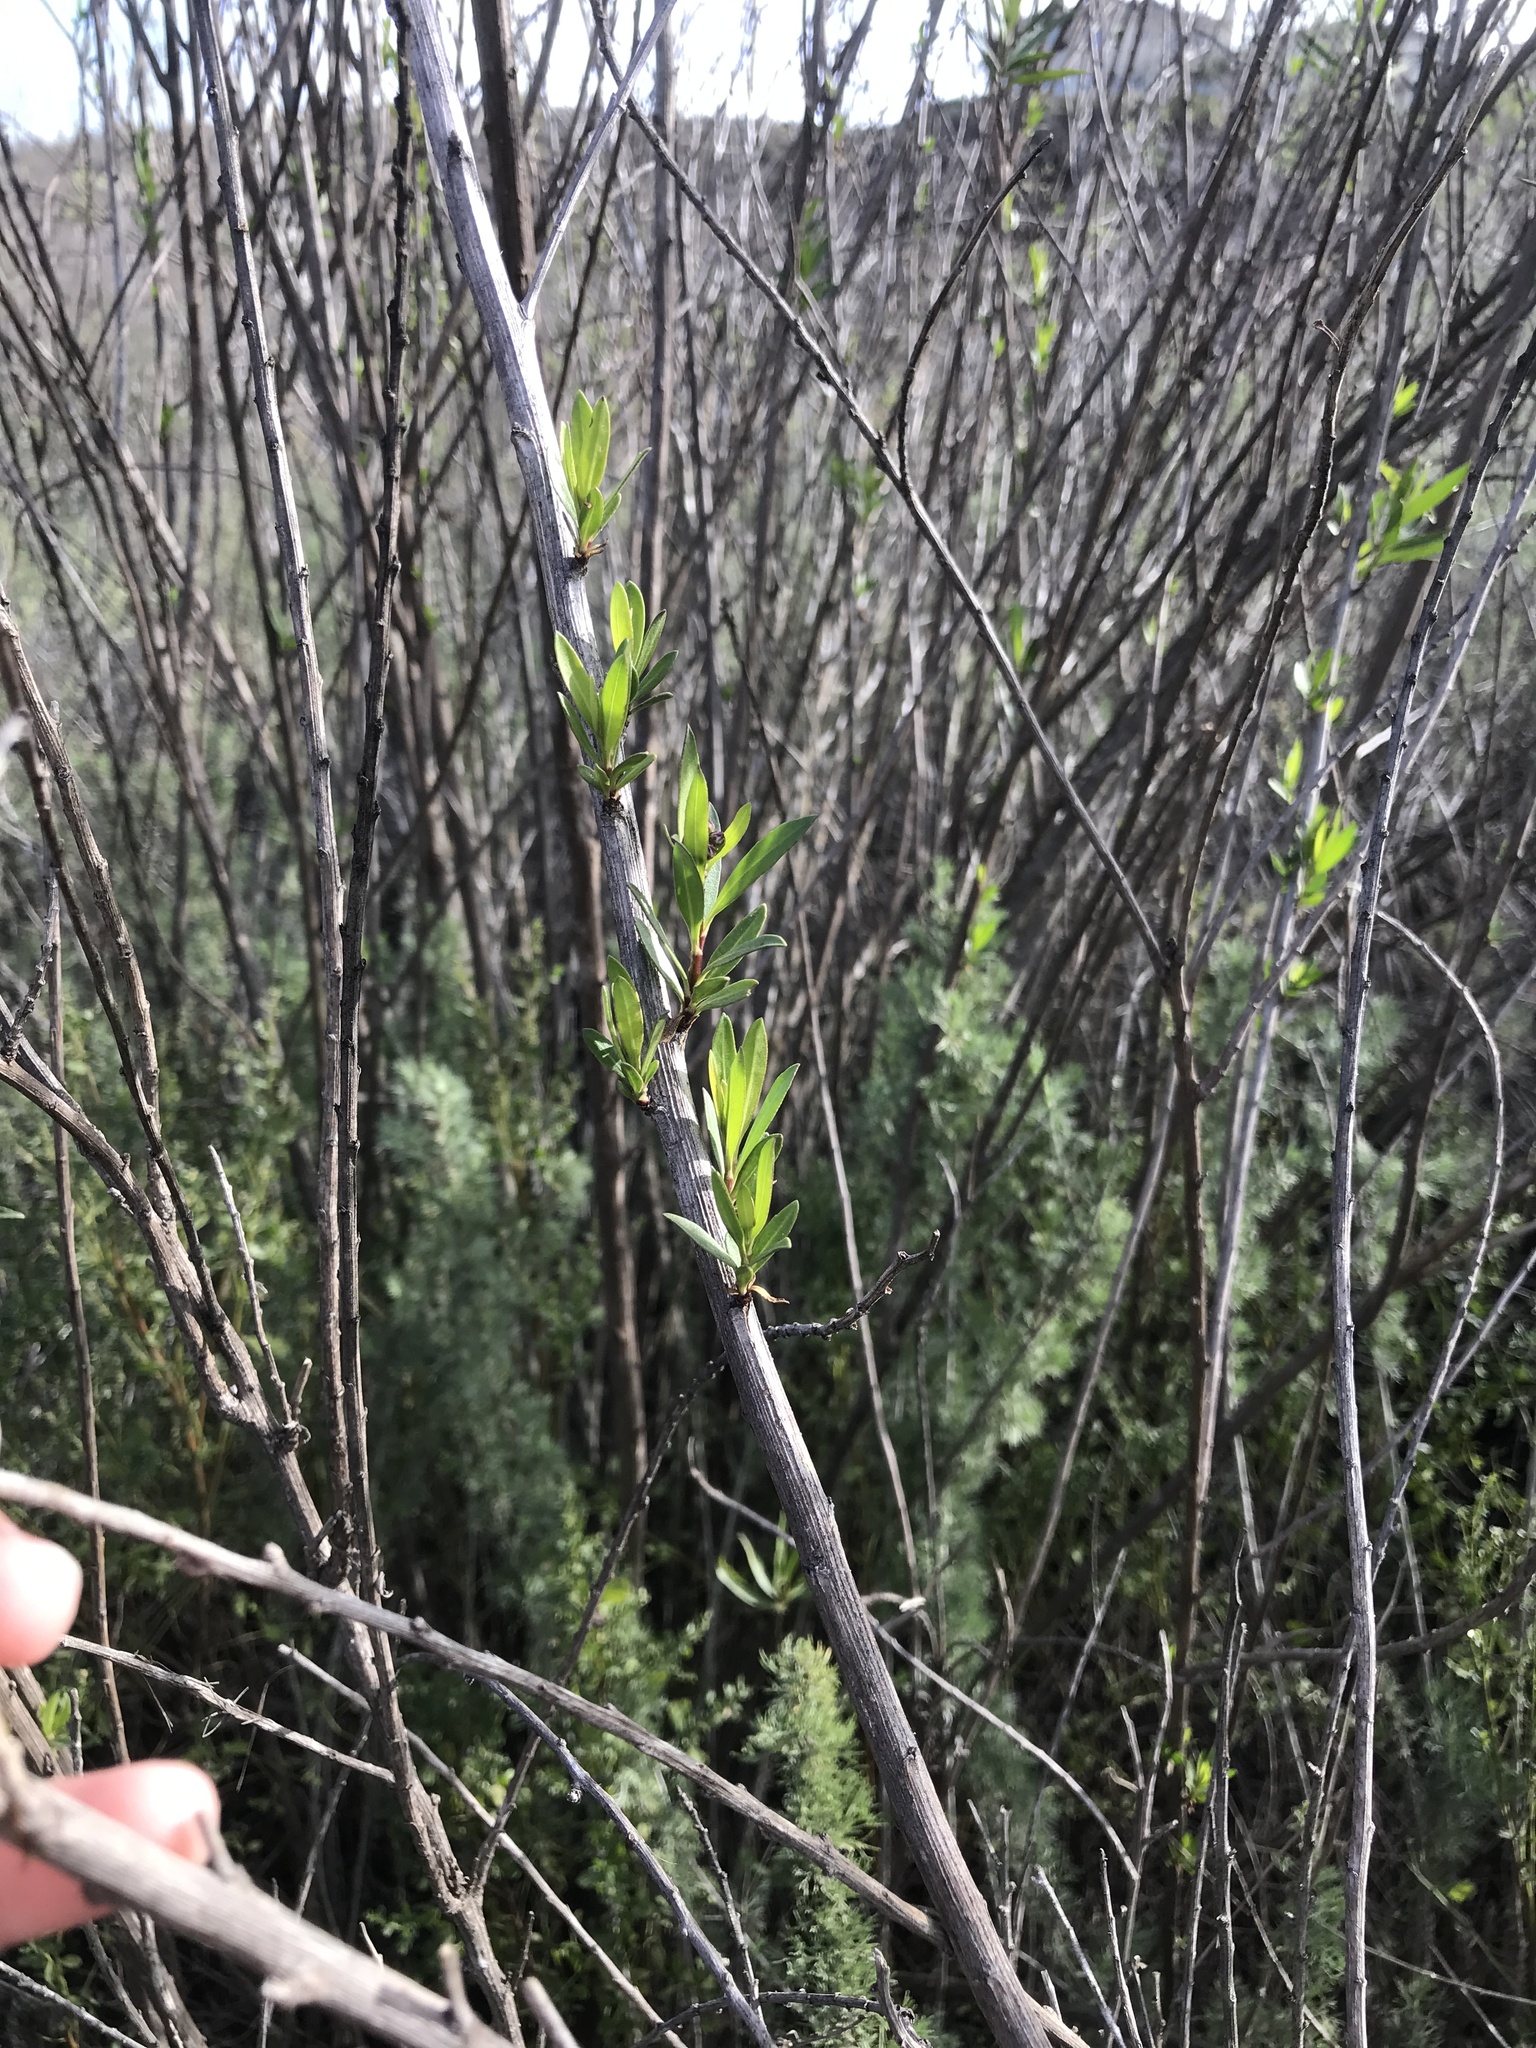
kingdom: Plantae
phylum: Tracheophyta
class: Magnoliopsida
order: Asterales
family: Asteraceae
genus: Baccharis
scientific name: Baccharis salicifolia
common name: Sticky baccharis
